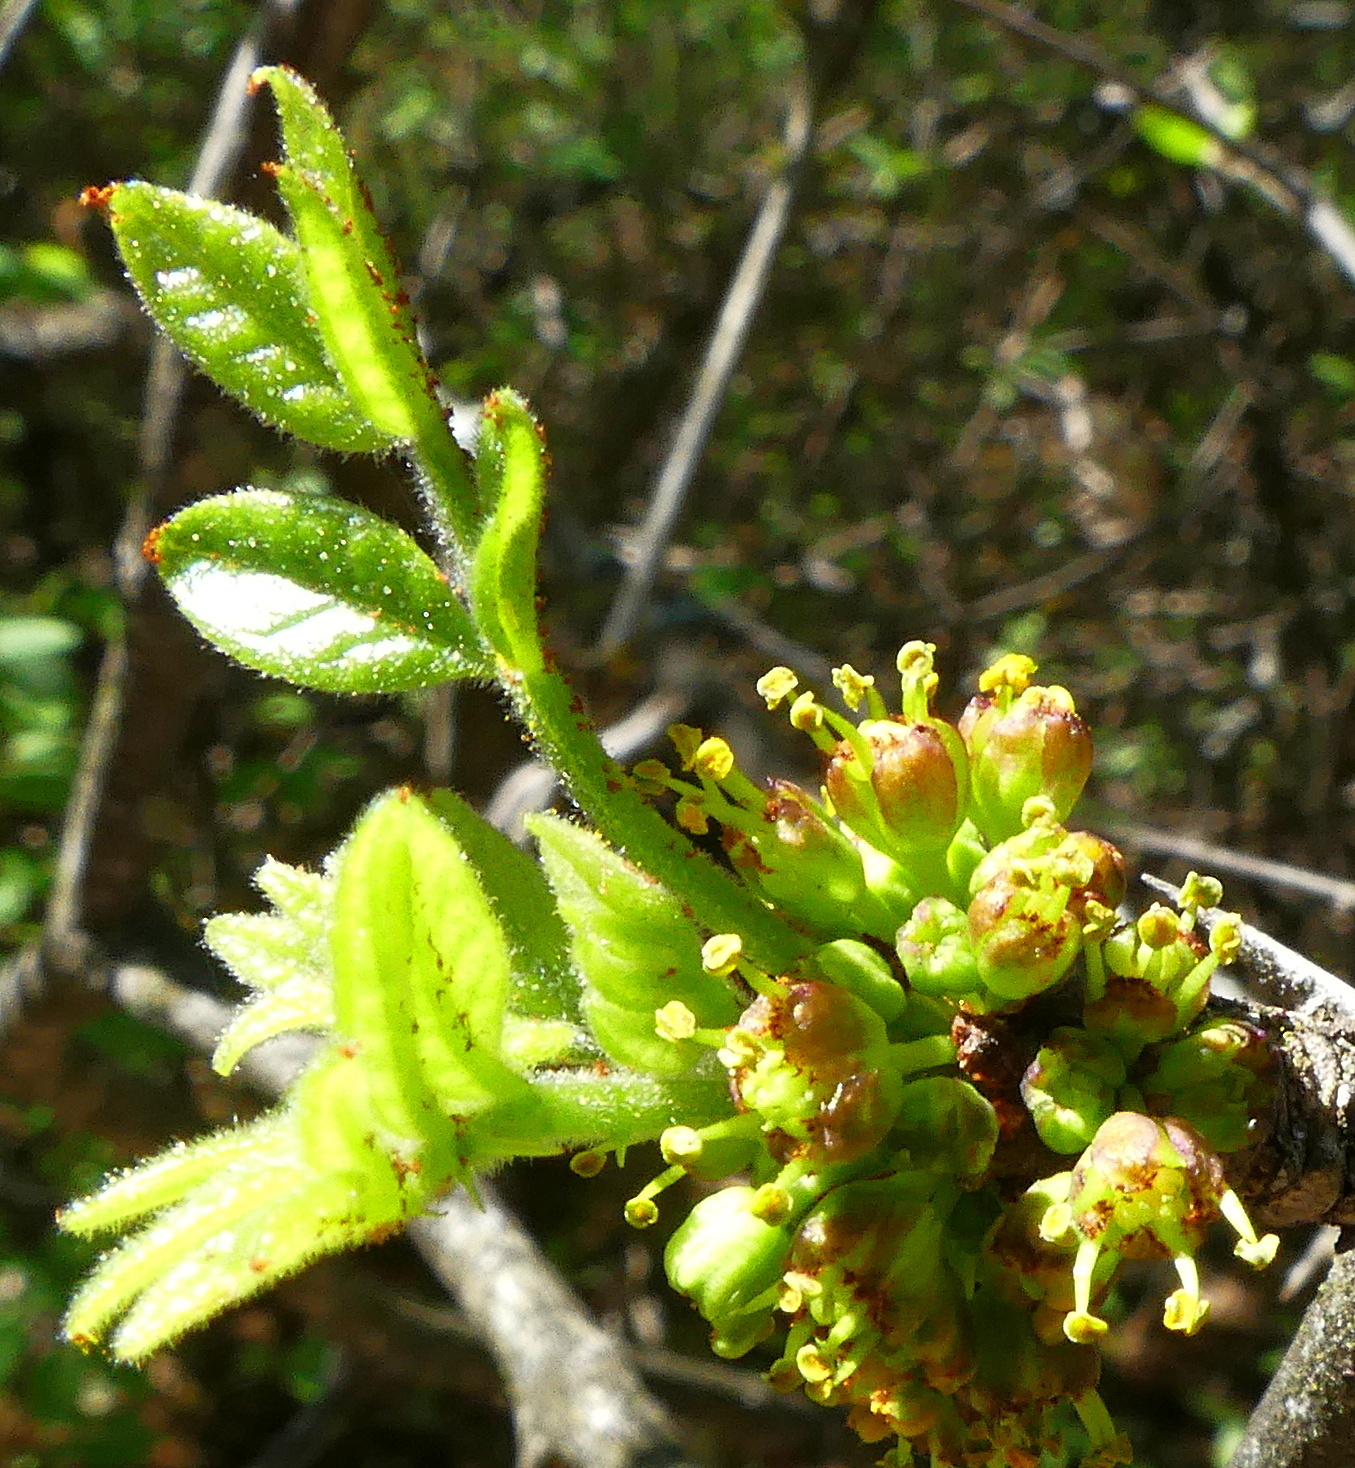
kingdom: Plantae
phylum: Tracheophyta
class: Magnoliopsida
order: Sapindales
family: Rutaceae
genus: Zanthoxylum
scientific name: Zanthoxylum americanum
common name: Northern prickly-ash
